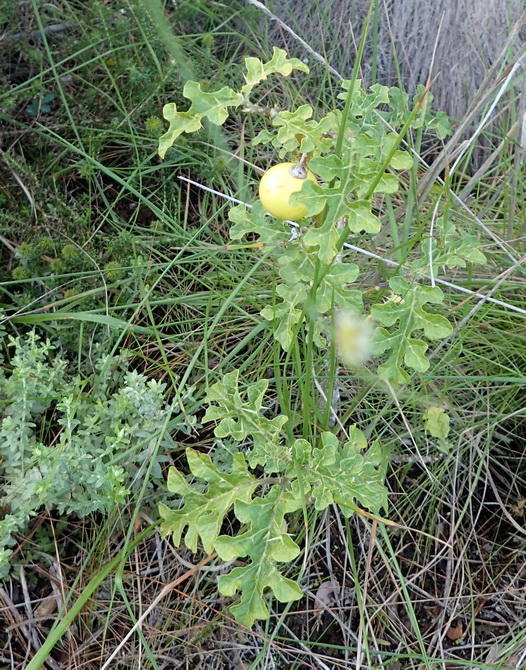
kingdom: Plantae
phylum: Tracheophyta
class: Magnoliopsida
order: Solanales
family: Solanaceae
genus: Solanum
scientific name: Solanum linnaeanum
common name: Nightshade
